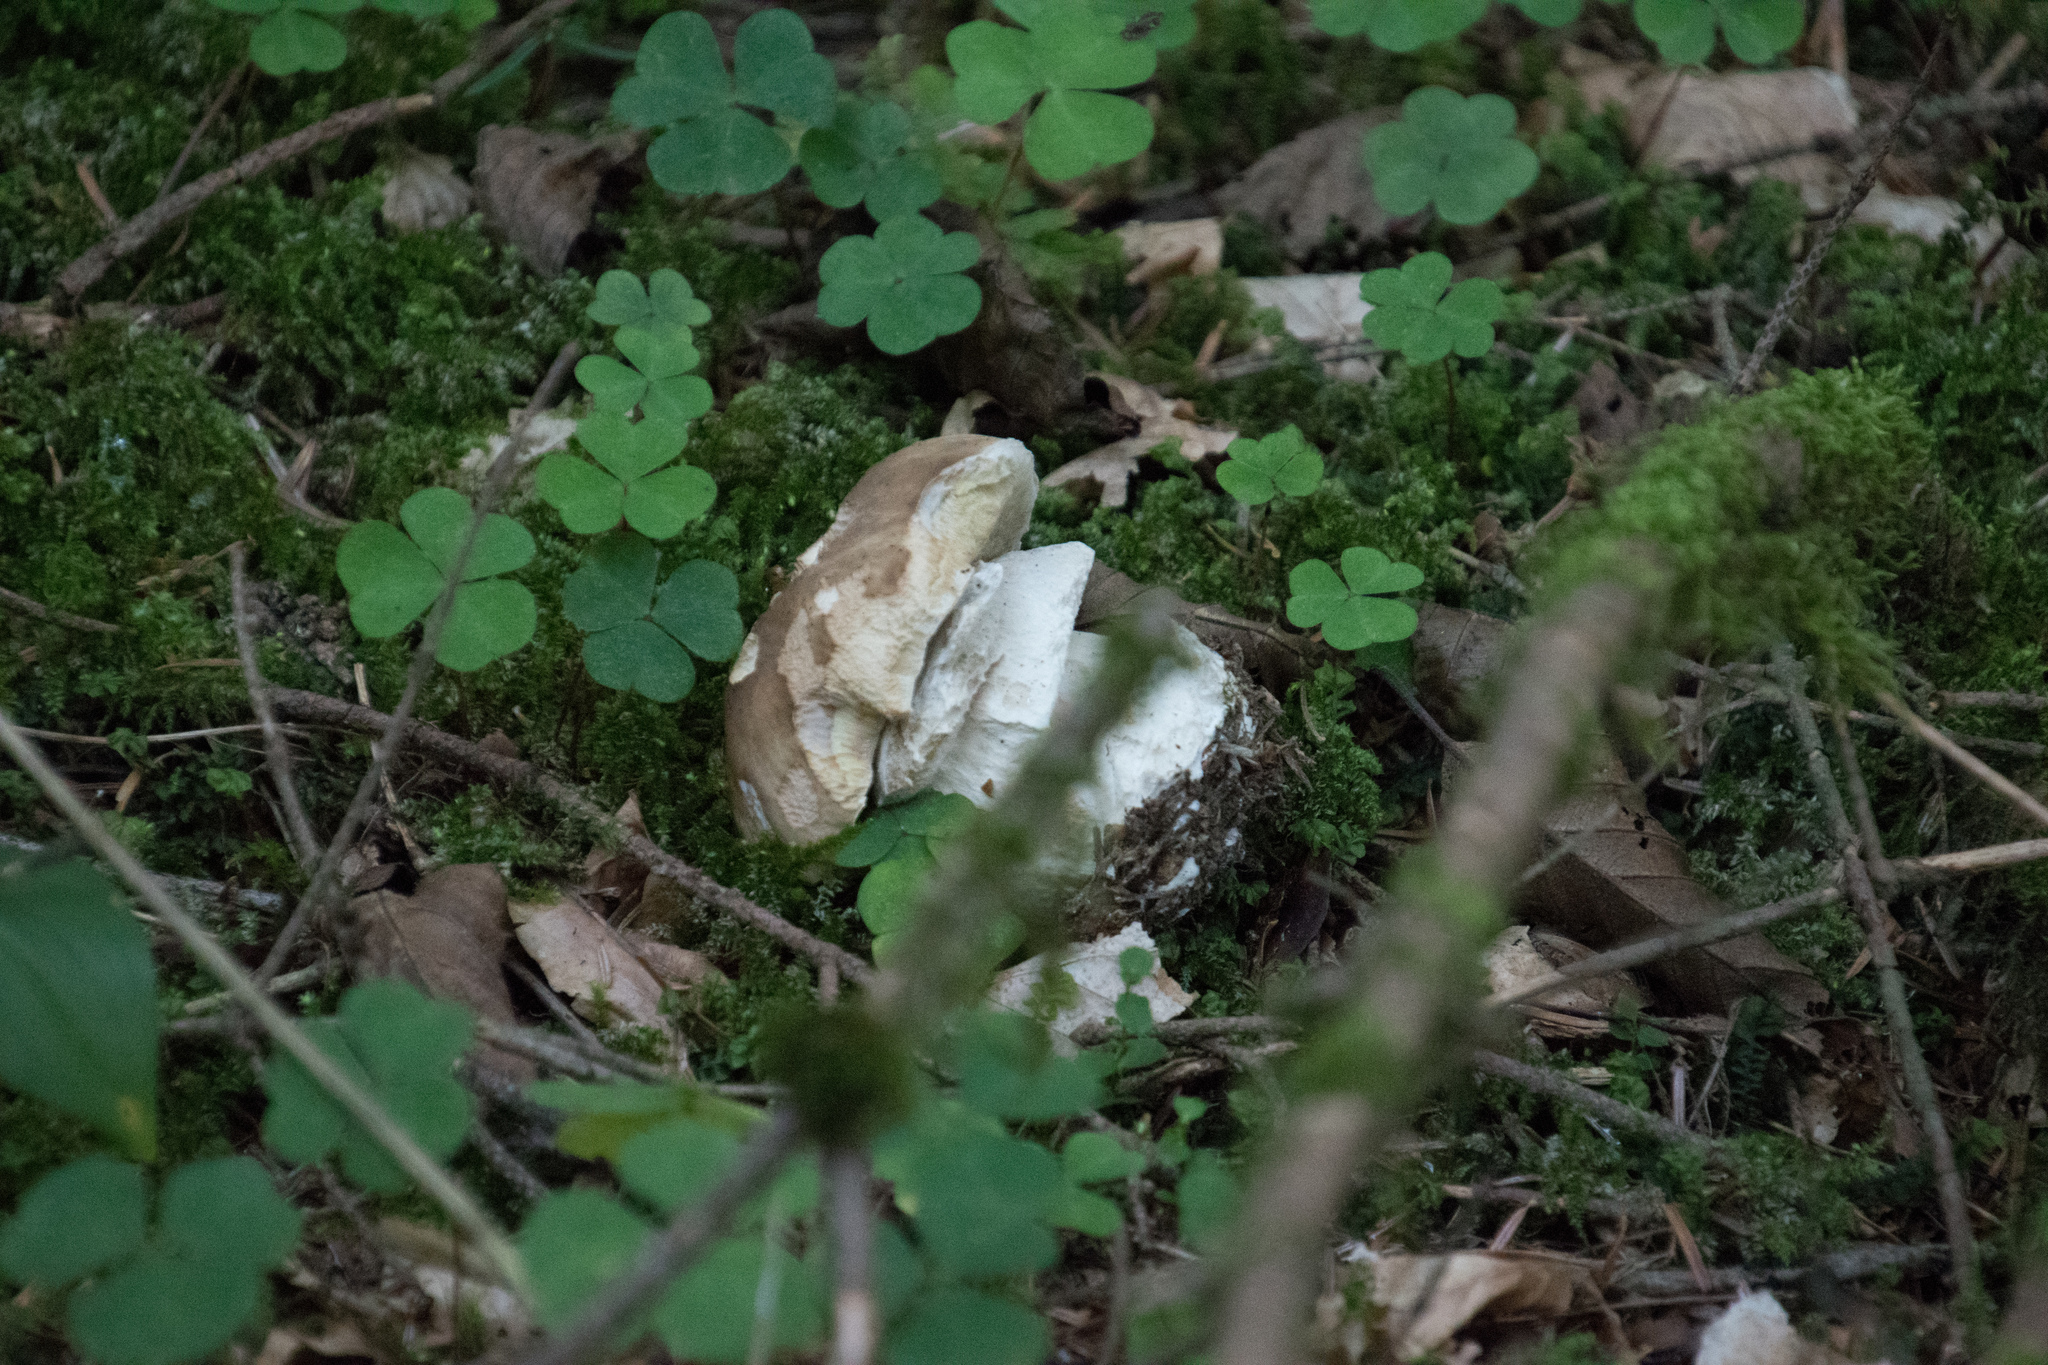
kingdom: Fungi
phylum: Basidiomycota
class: Agaricomycetes
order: Boletales
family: Boletaceae
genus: Boletus
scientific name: Boletus edulis
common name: Cep
